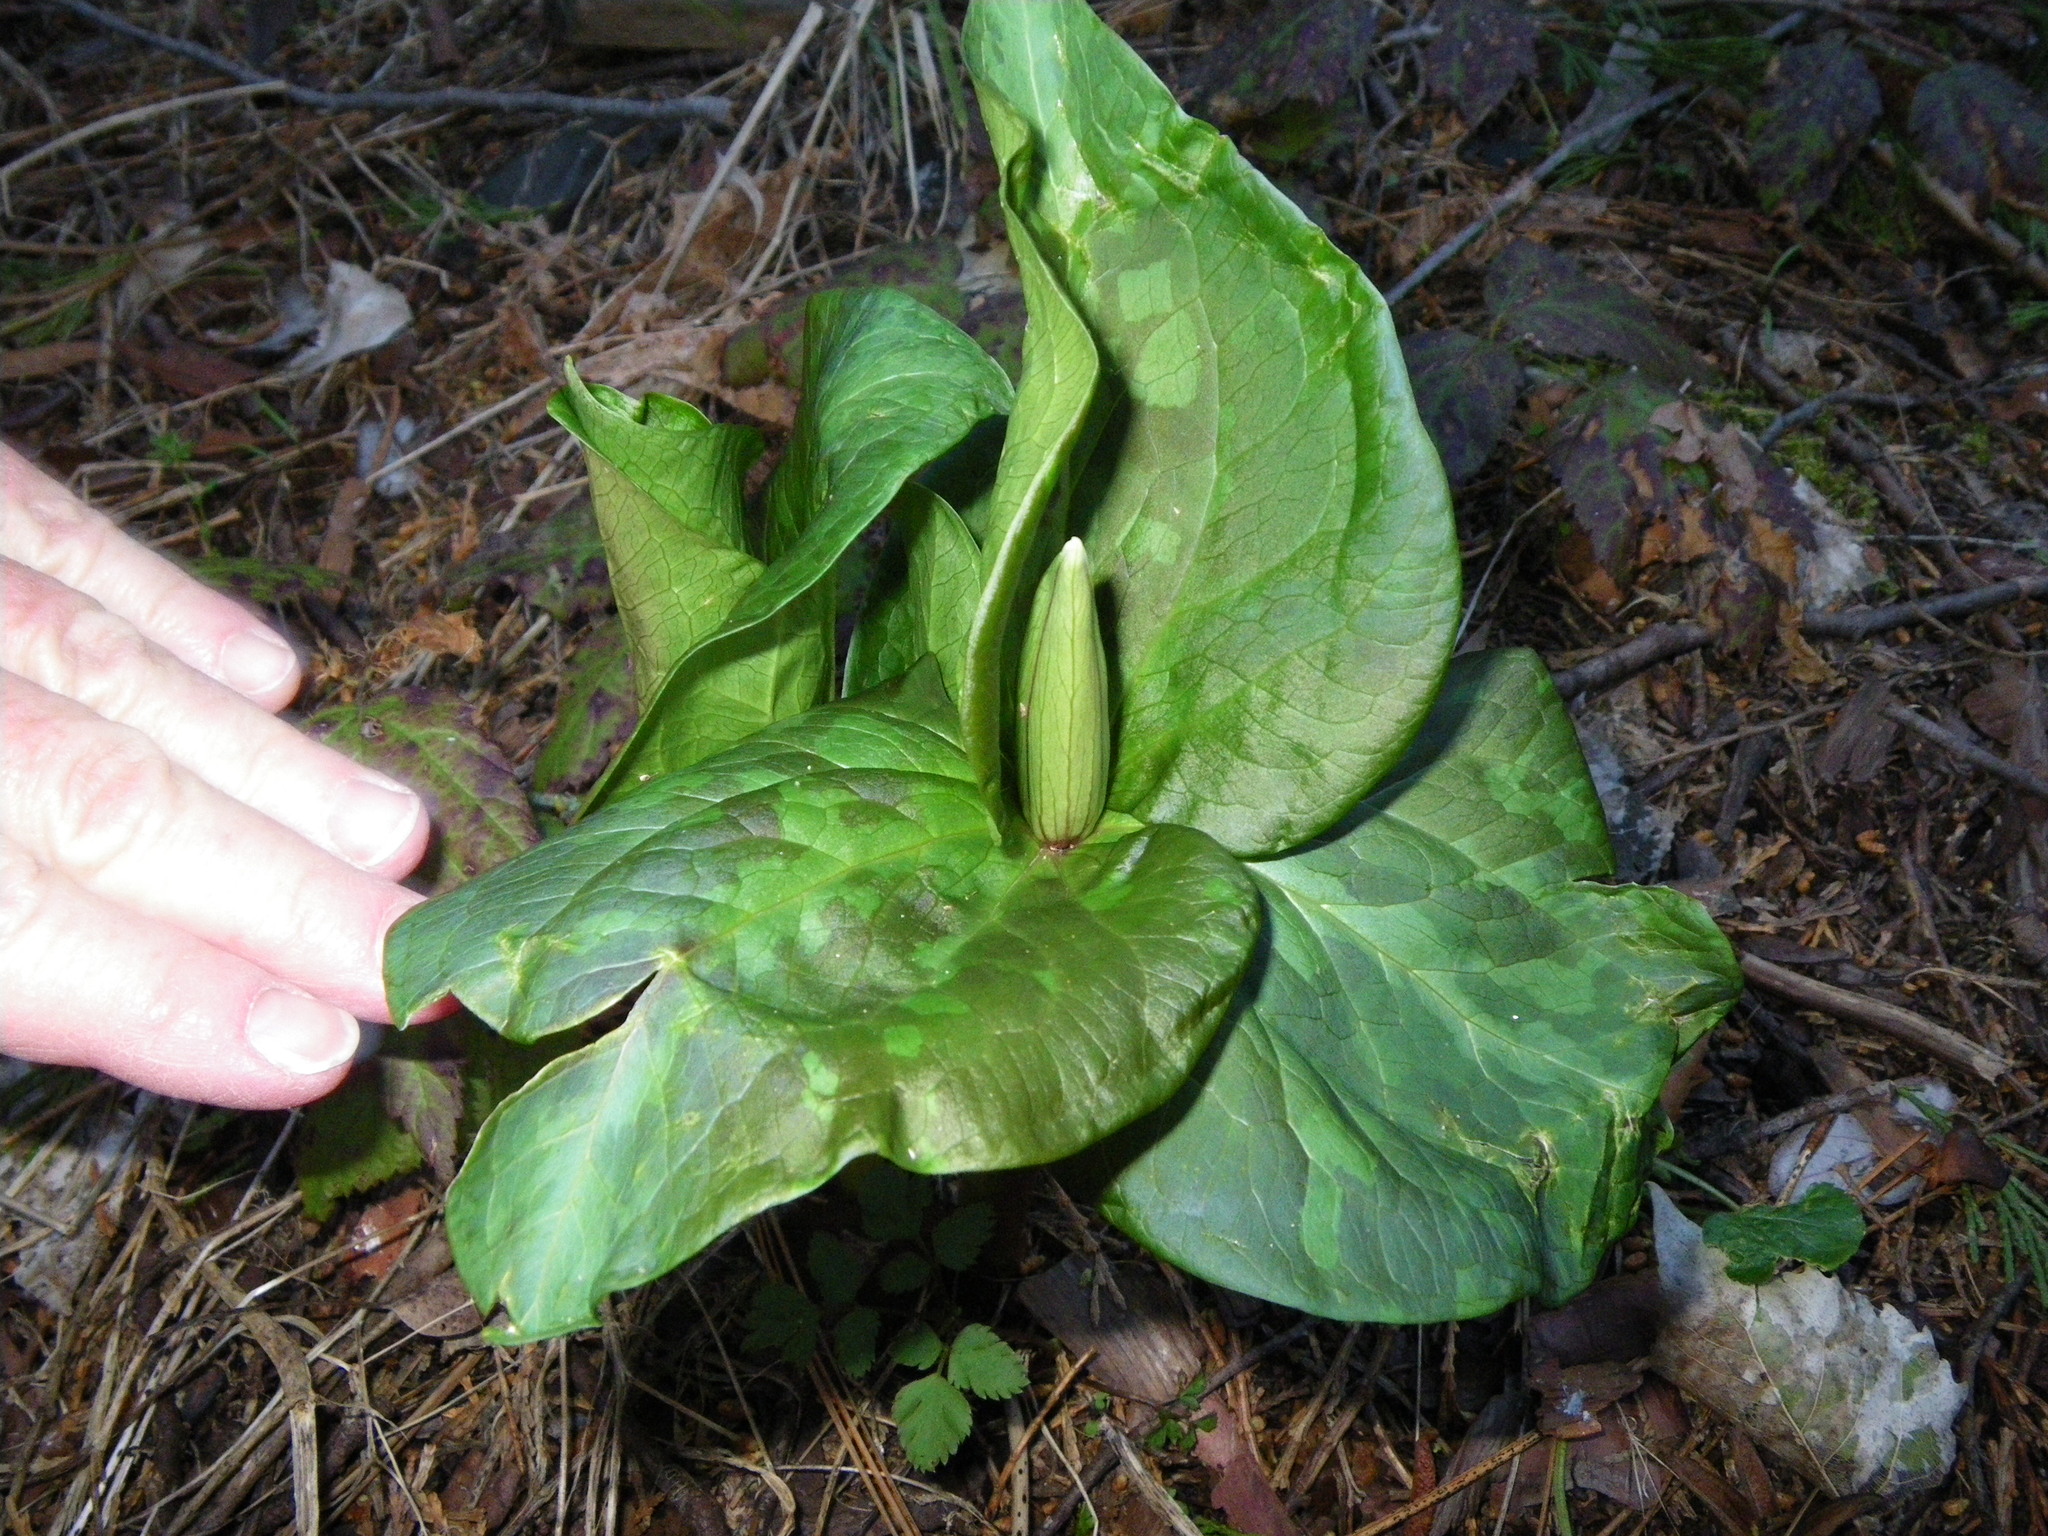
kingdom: Plantae
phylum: Tracheophyta
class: Liliopsida
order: Liliales
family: Melanthiaceae
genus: Trillium
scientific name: Trillium chloropetalum
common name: Giant trillium
